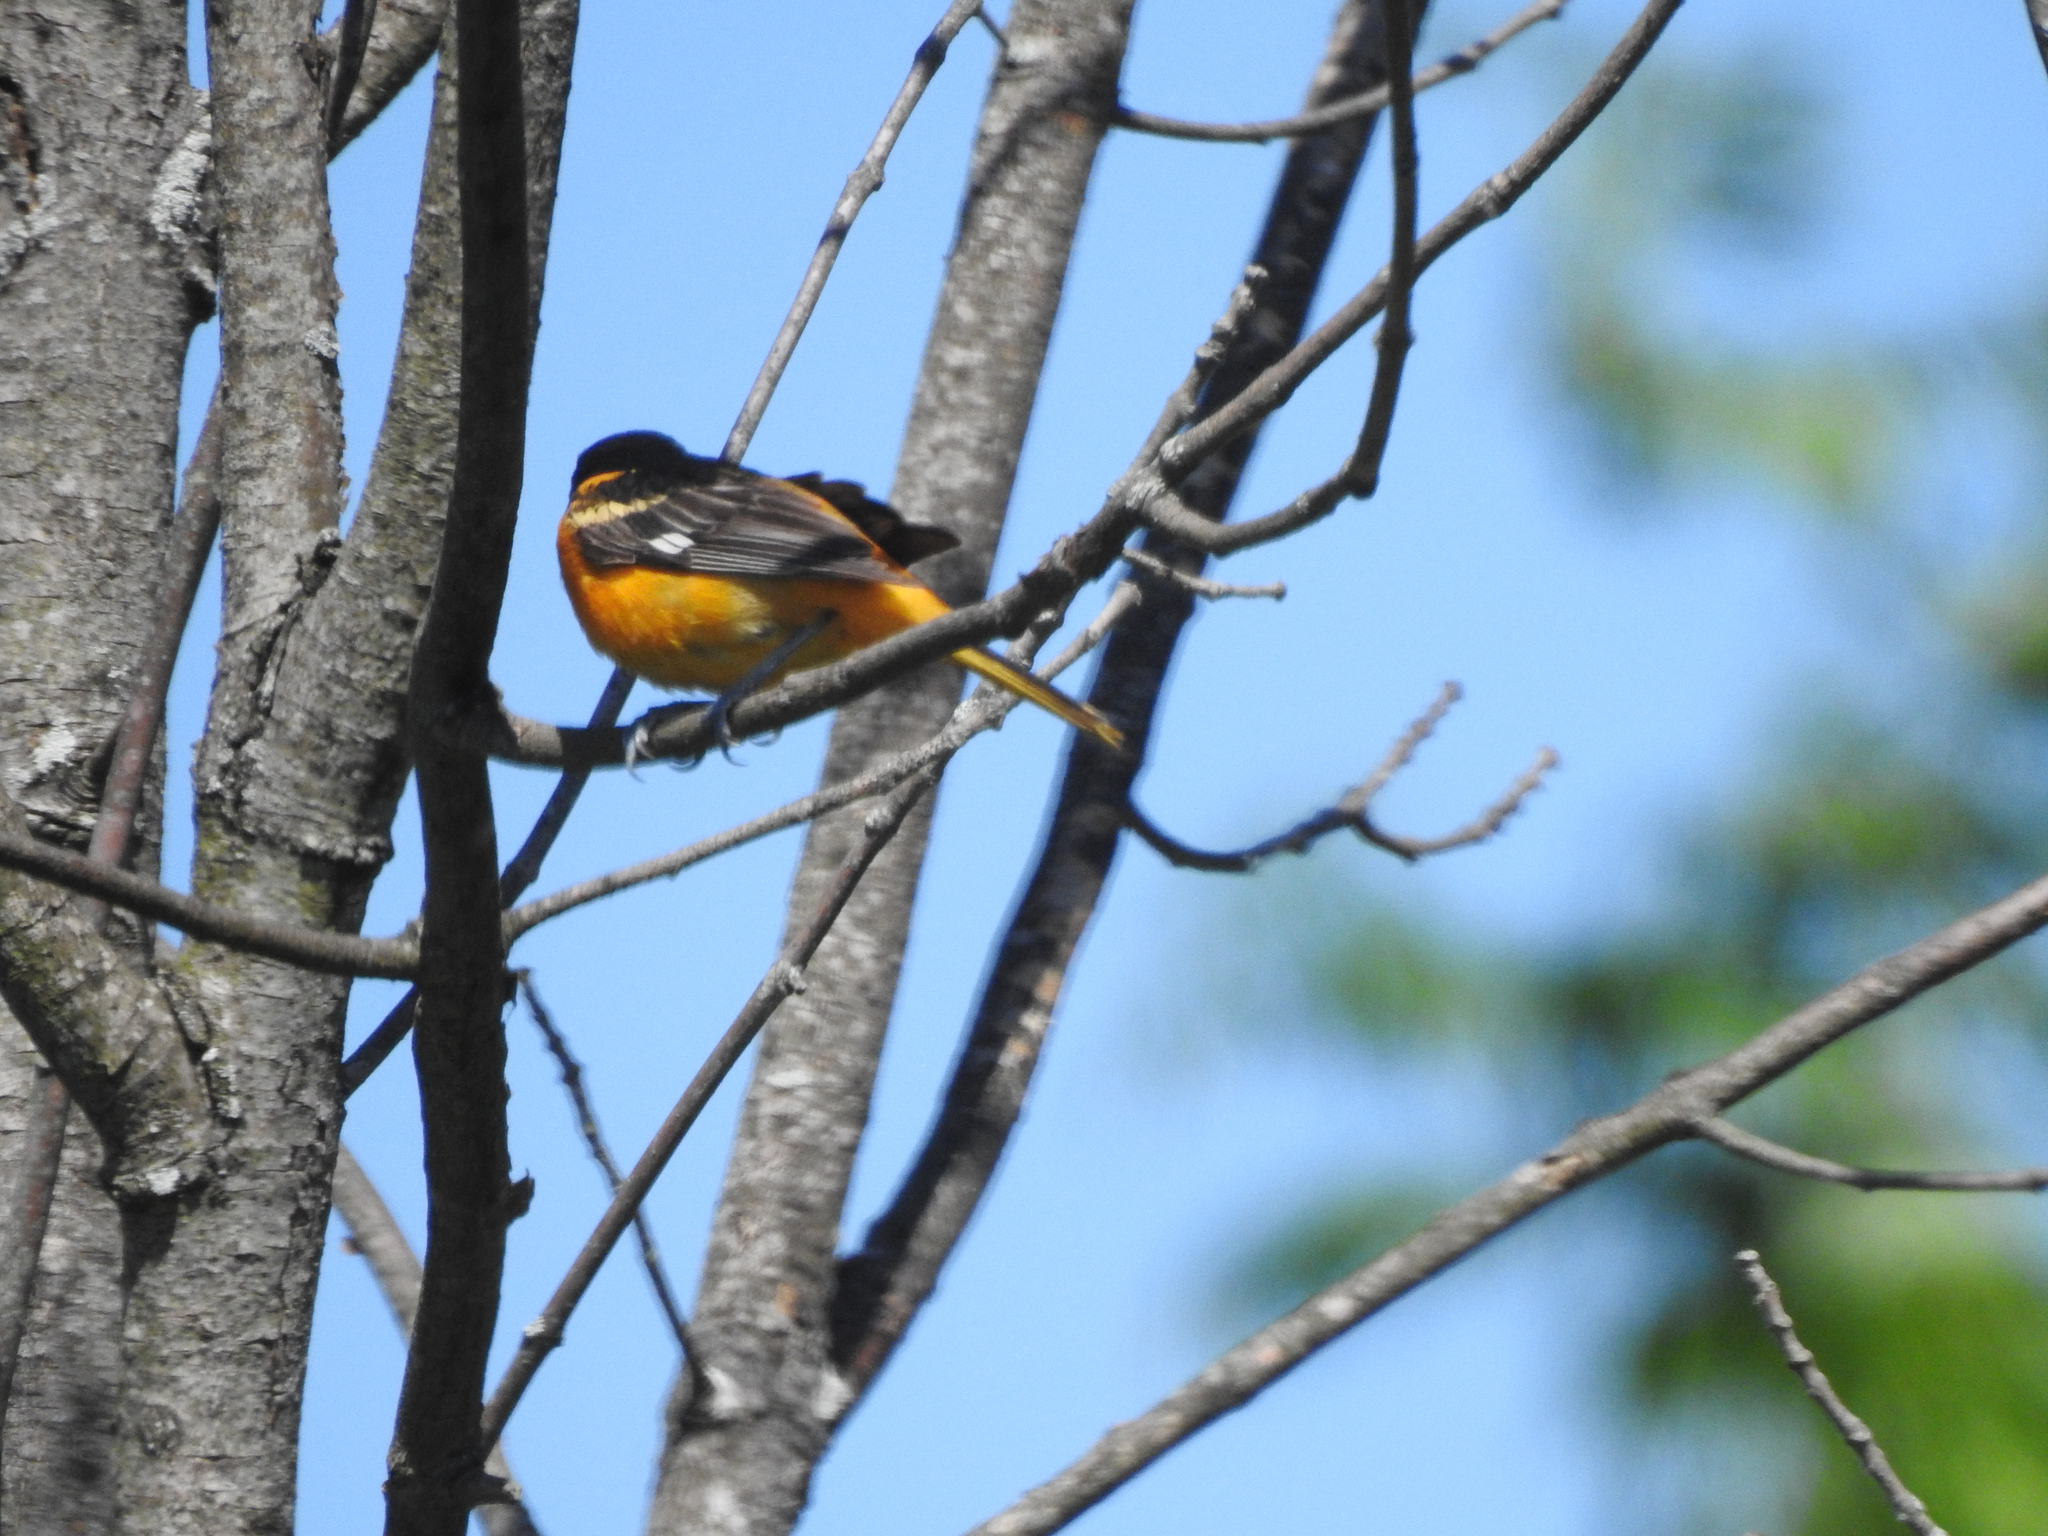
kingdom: Animalia
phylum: Chordata
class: Aves
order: Passeriformes
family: Icteridae
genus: Icterus
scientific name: Icterus galbula
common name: Baltimore oriole
